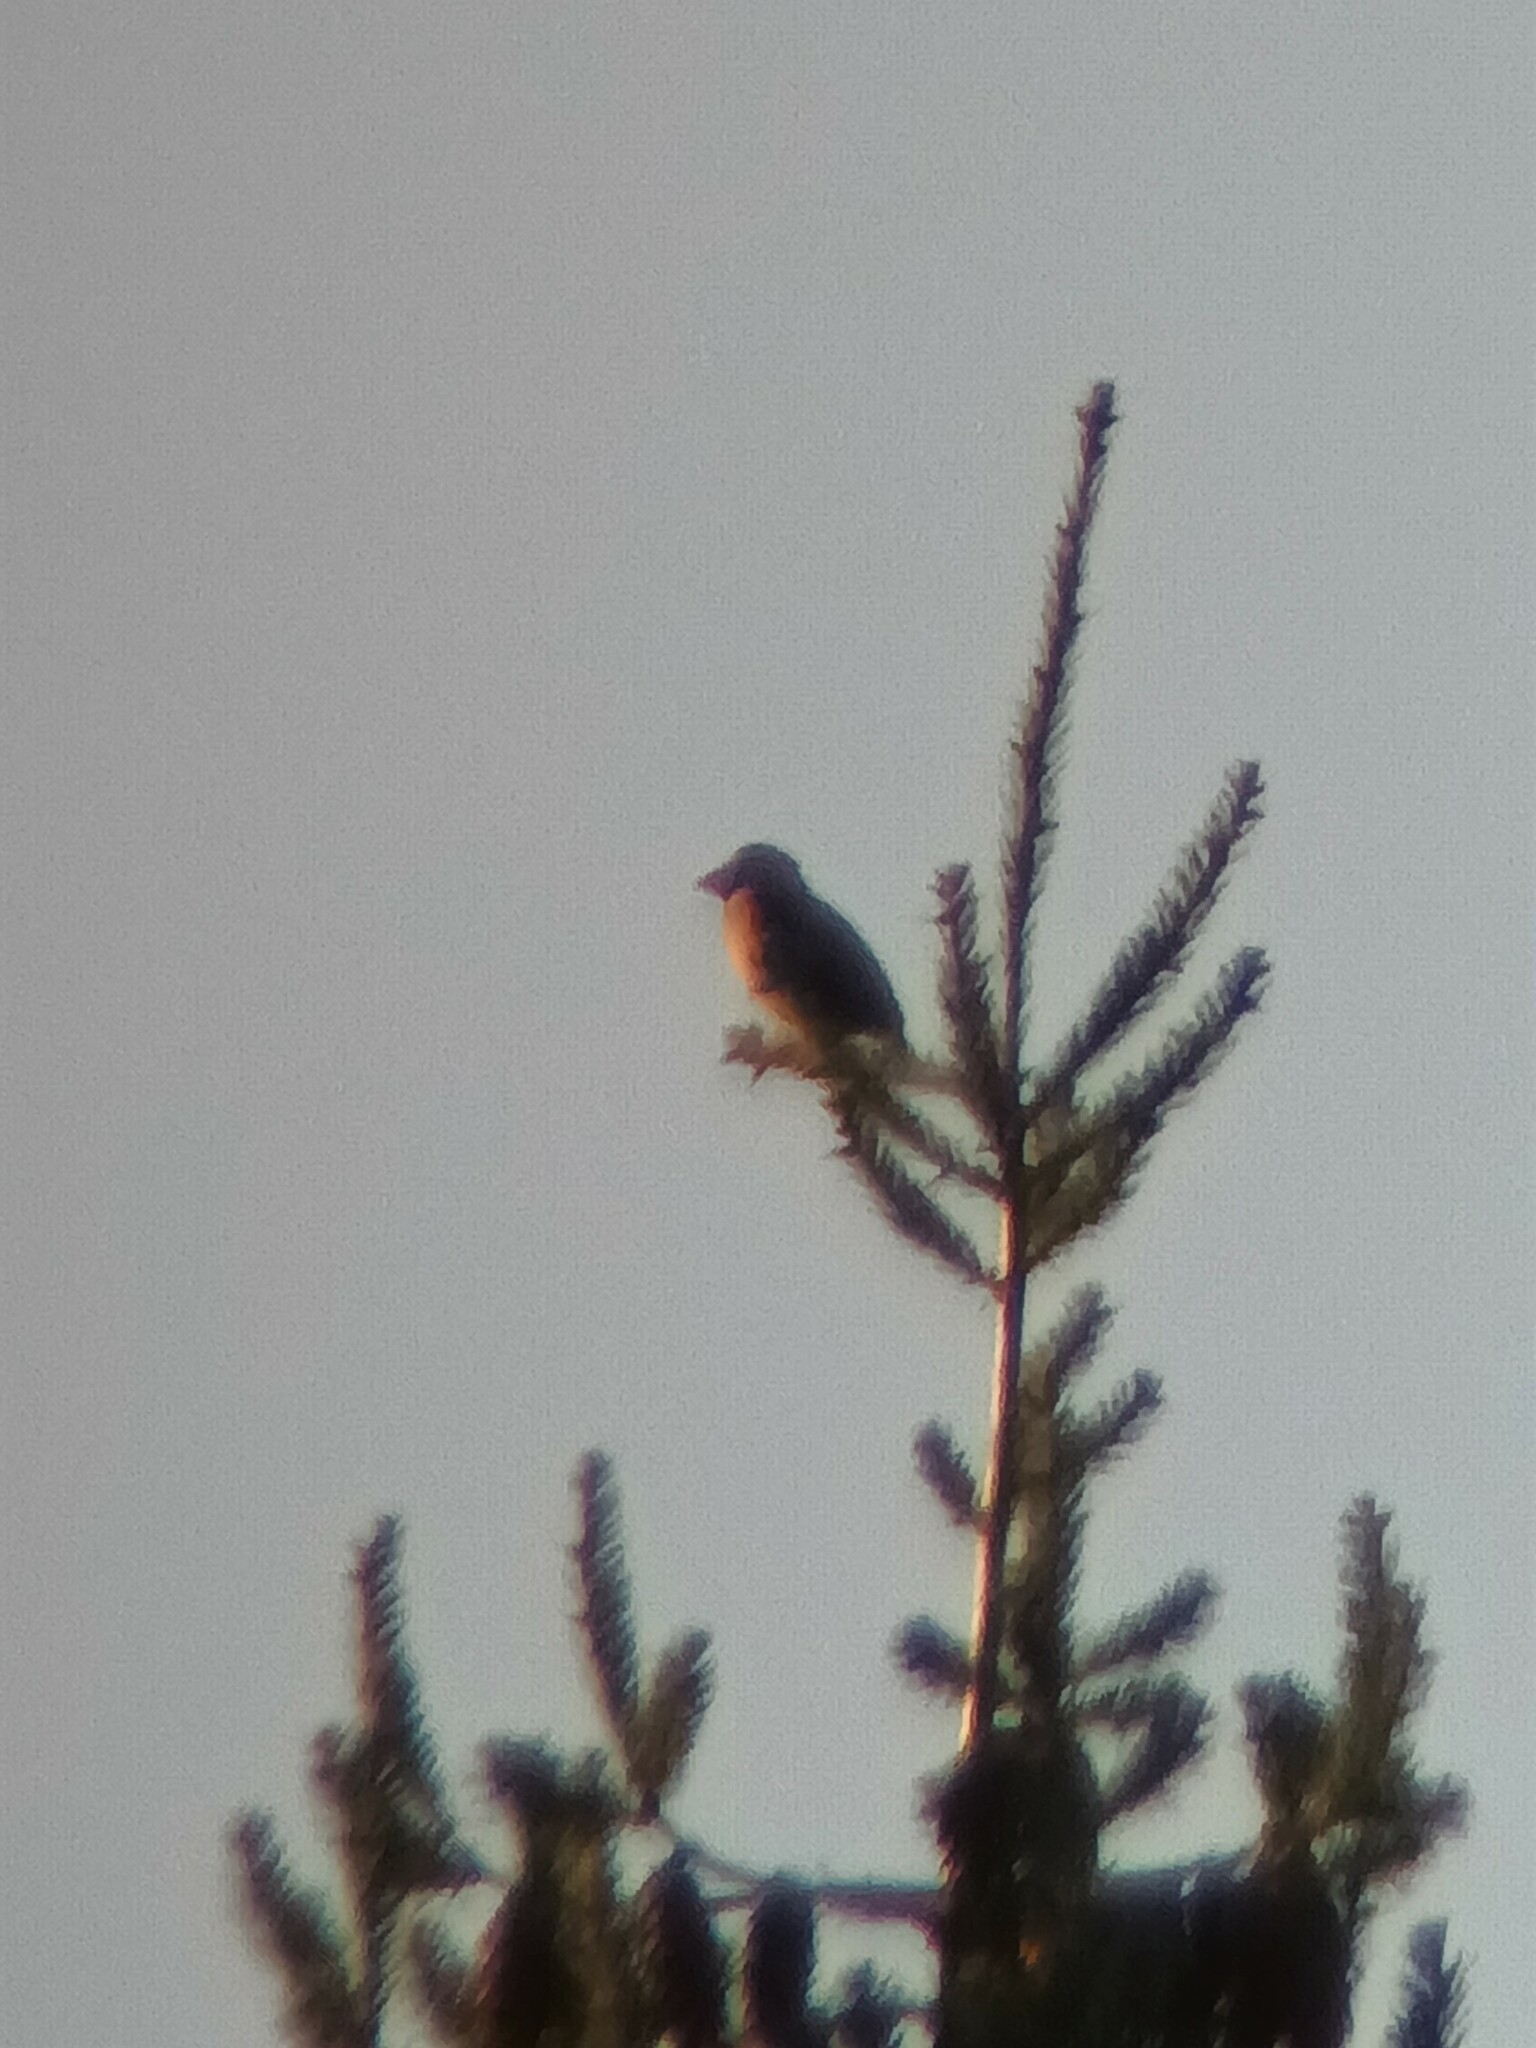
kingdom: Animalia
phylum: Chordata
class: Aves
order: Passeriformes
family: Fringillidae
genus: Coccothraustes
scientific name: Coccothraustes coccothraustes
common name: Hawfinch
